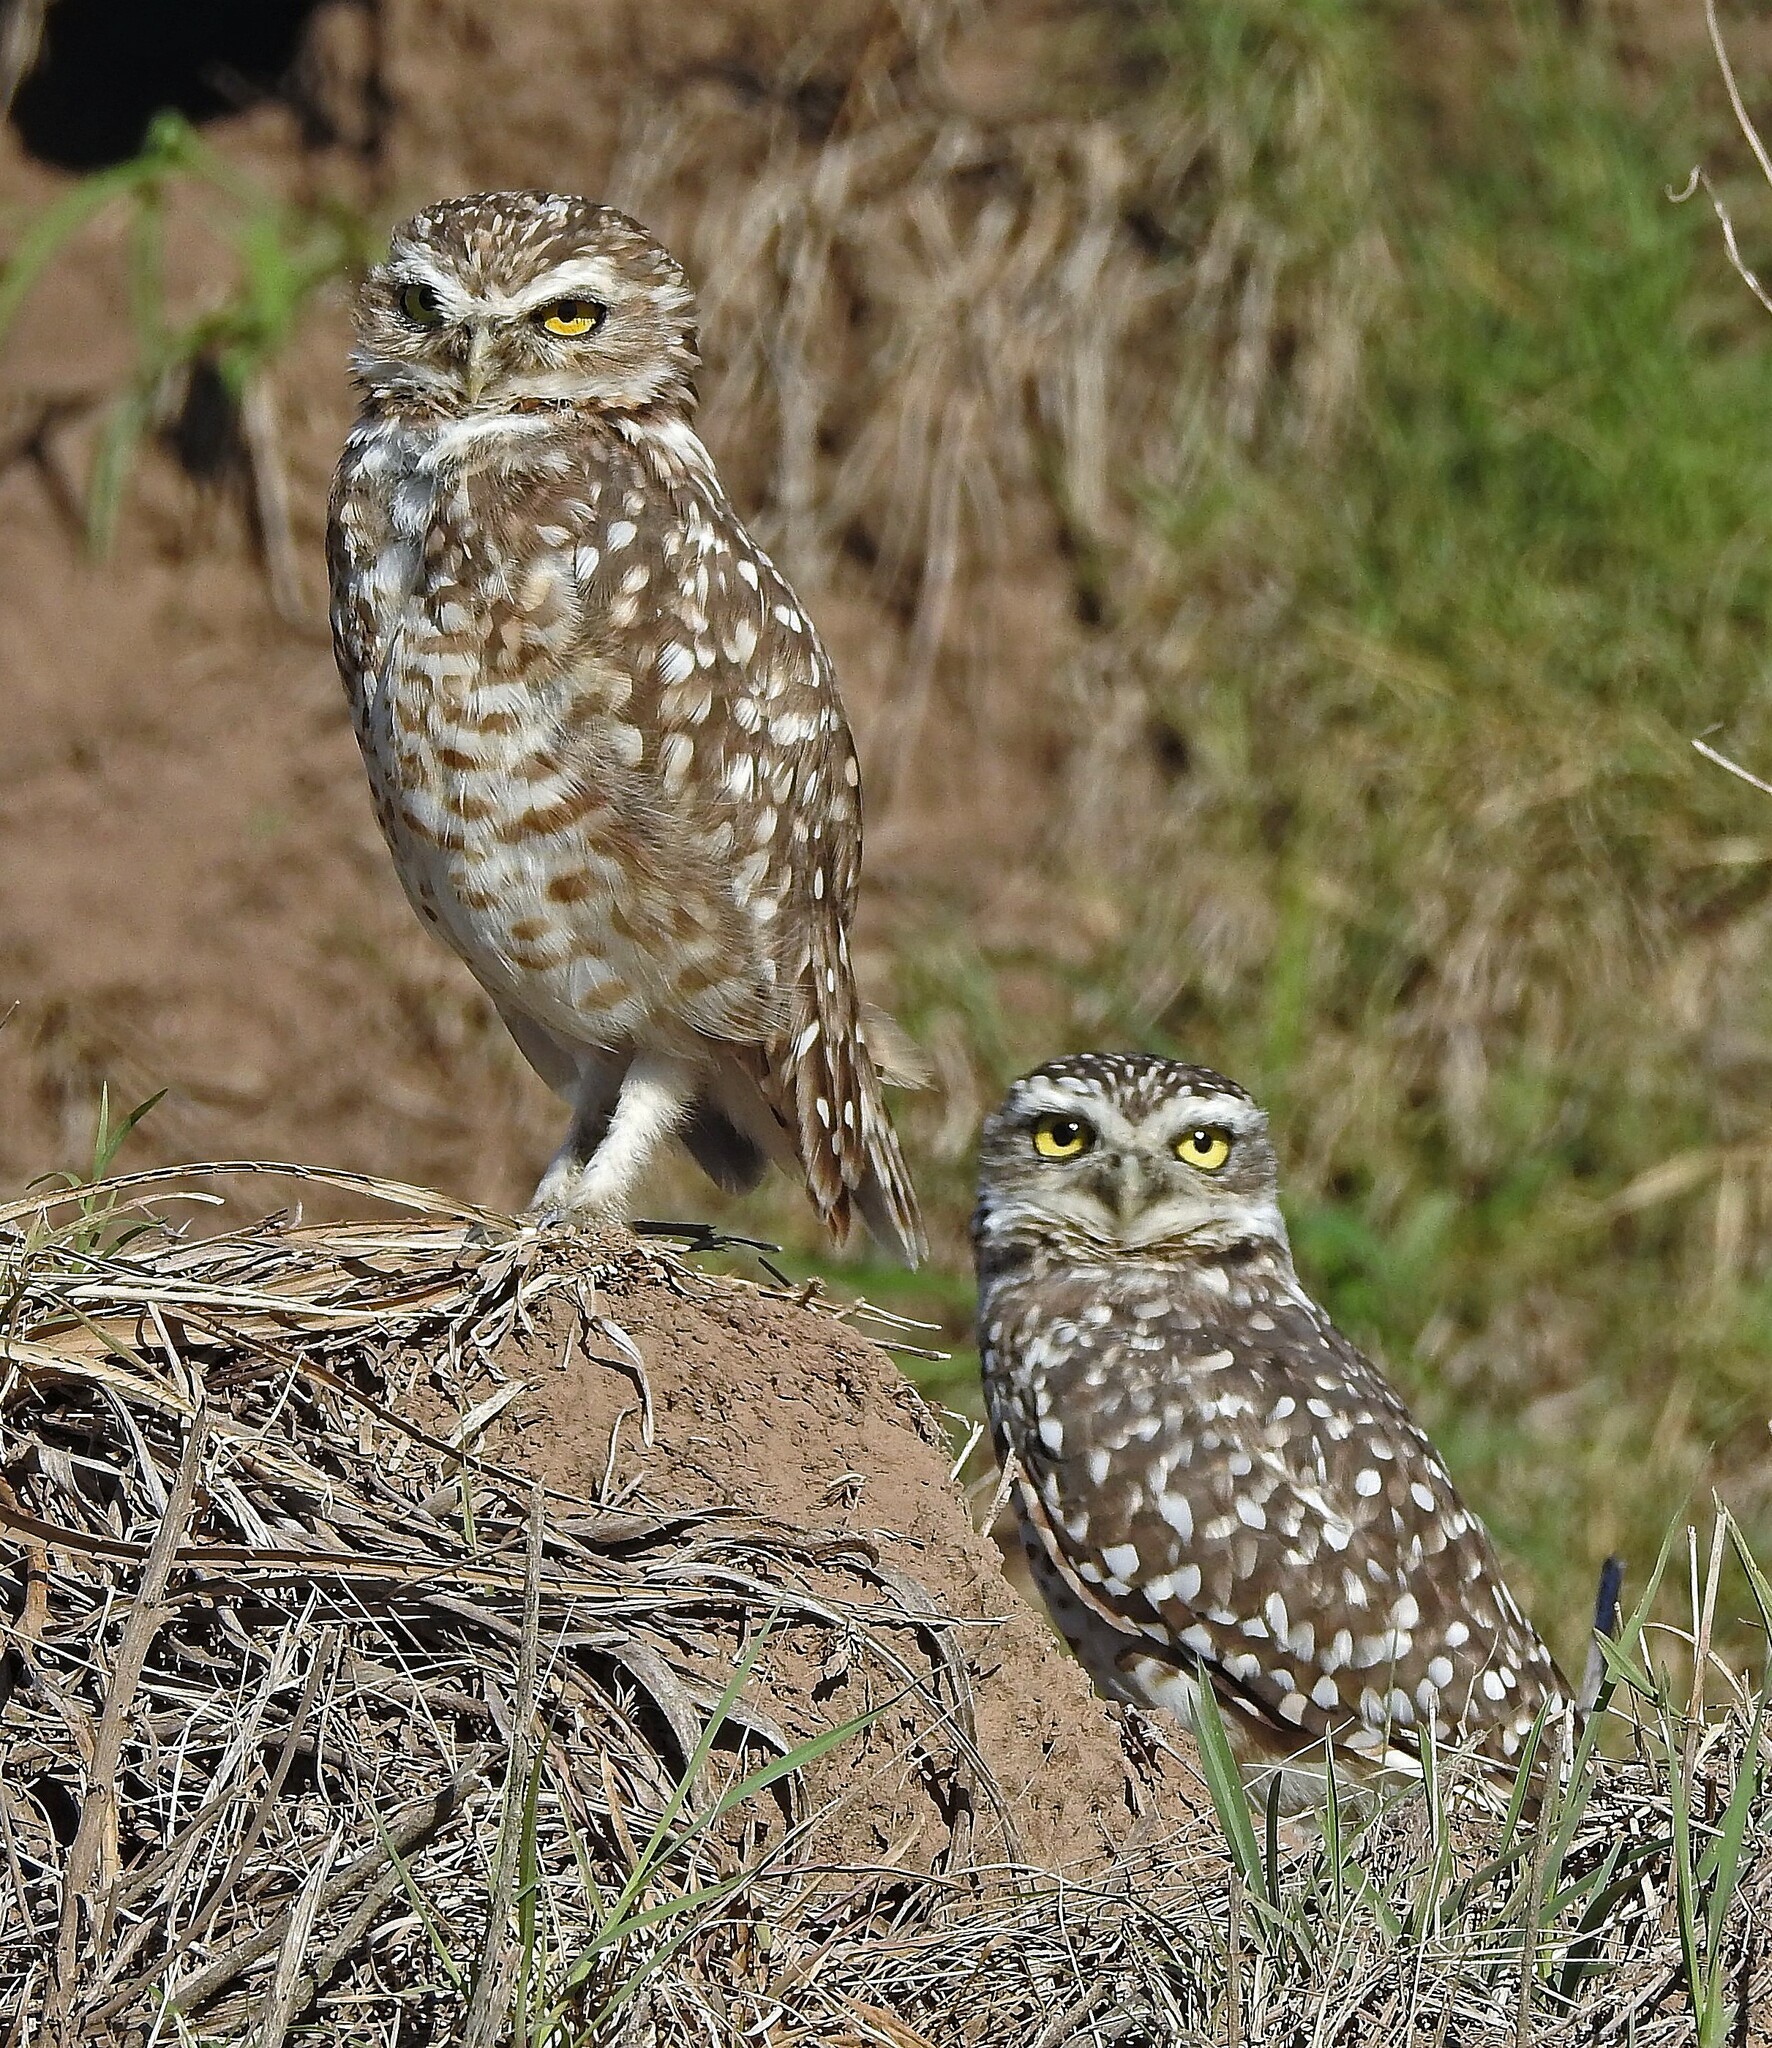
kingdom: Animalia
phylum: Chordata
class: Aves
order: Strigiformes
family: Strigidae
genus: Athene
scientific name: Athene cunicularia
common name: Burrowing owl
